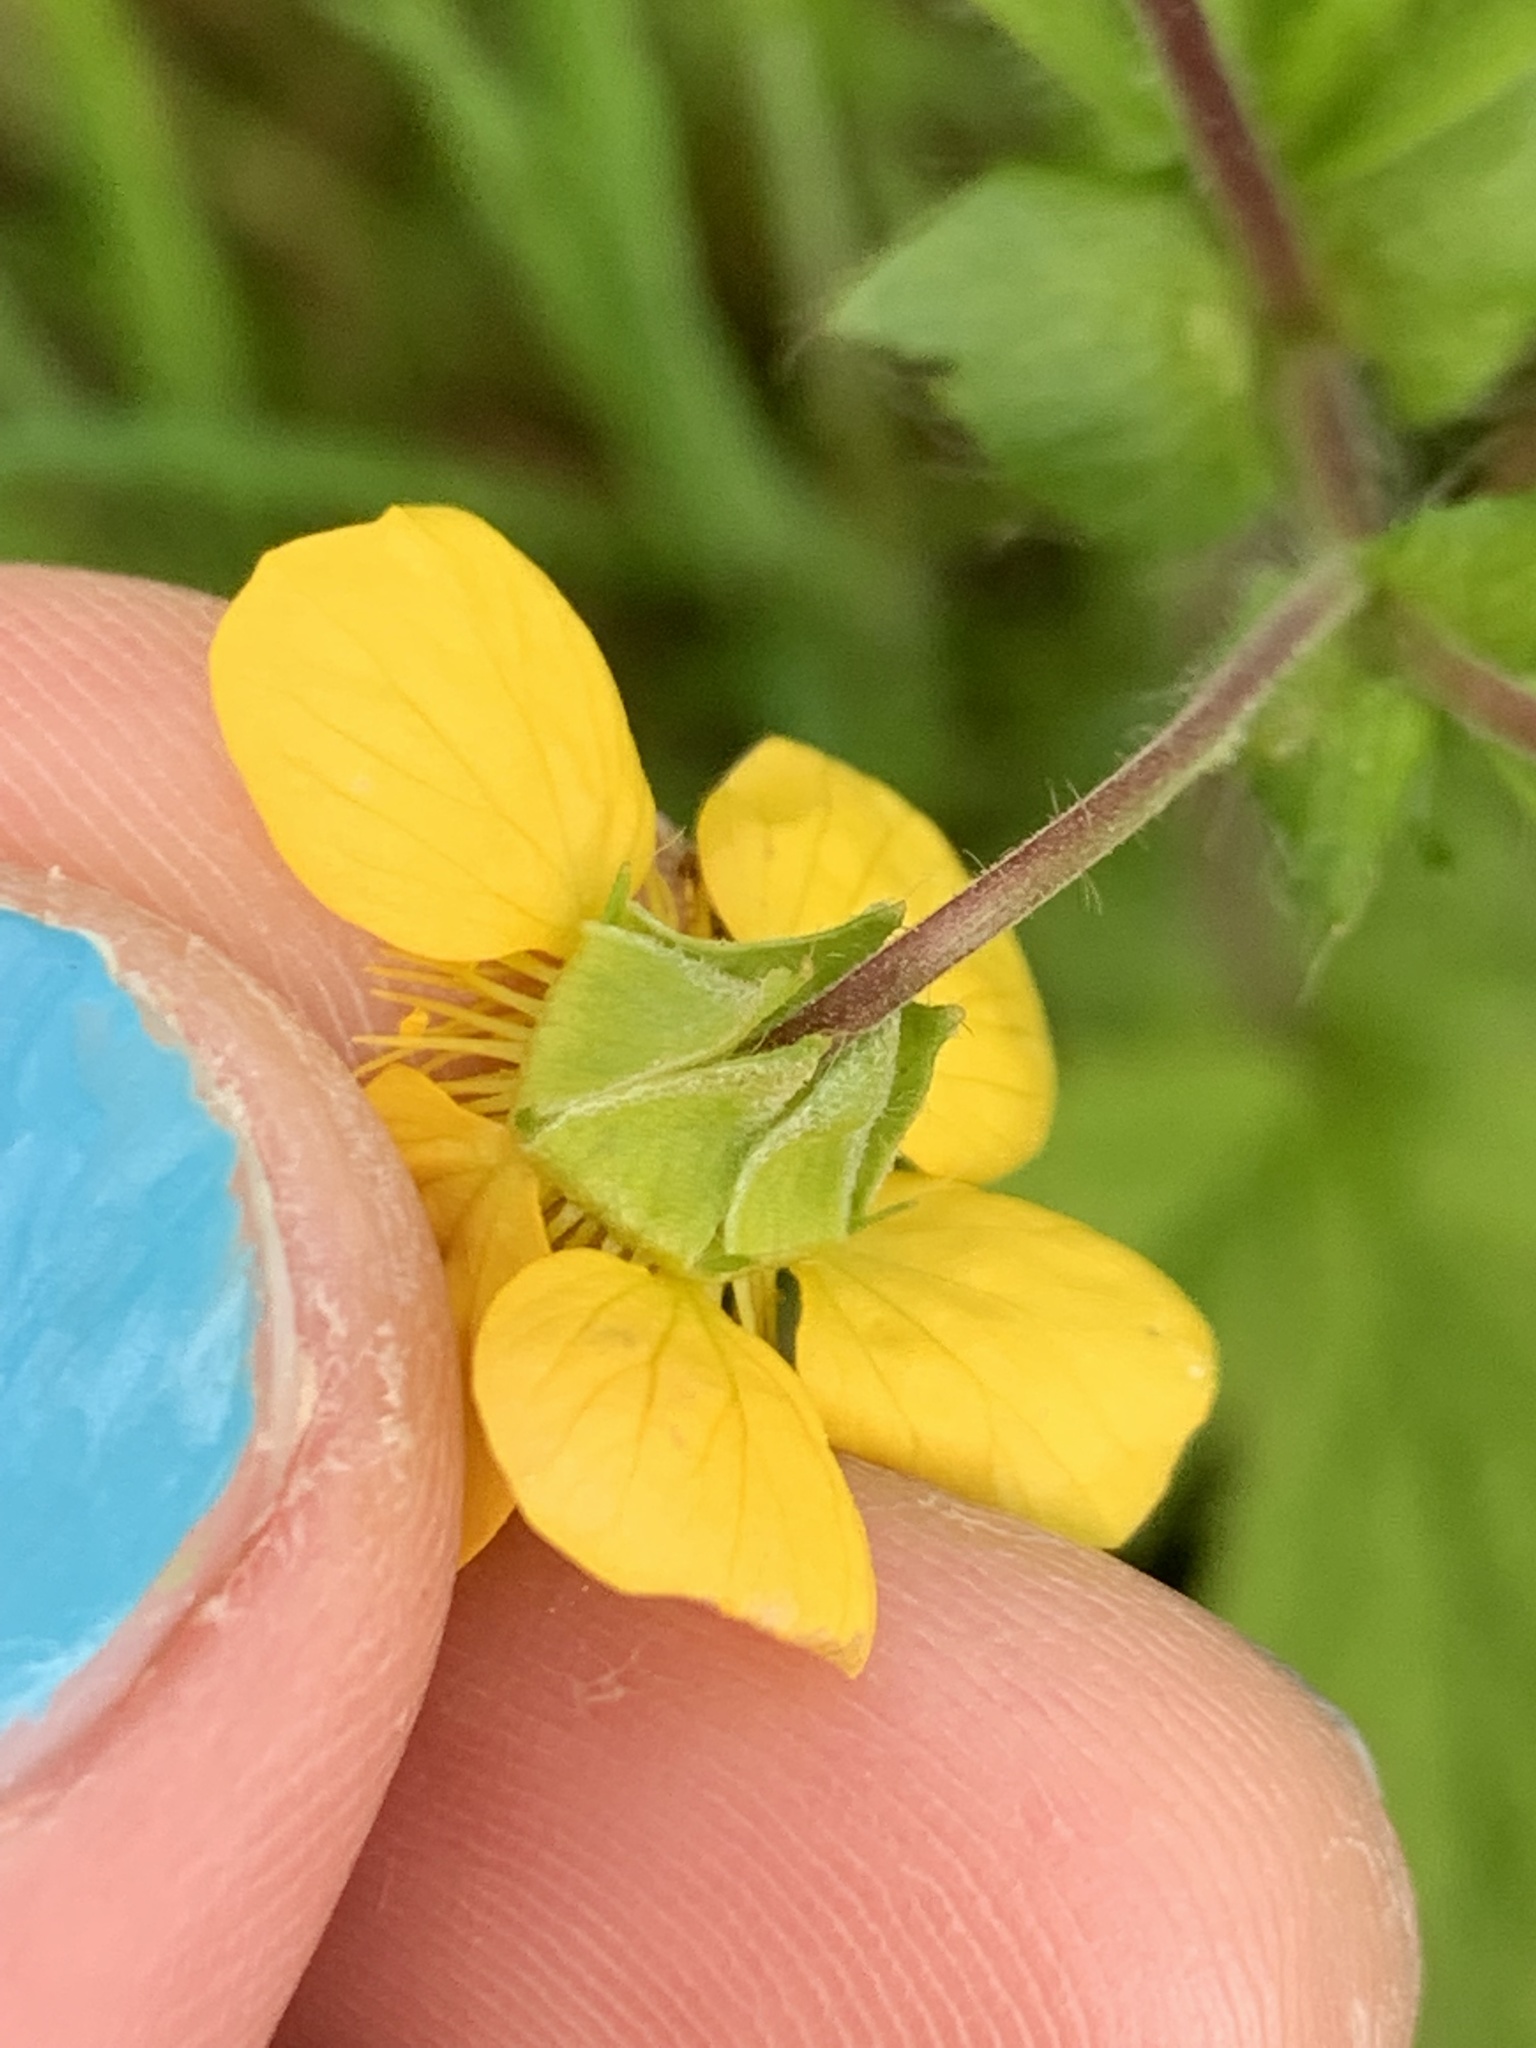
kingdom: Plantae
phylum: Tracheophyta
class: Magnoliopsida
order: Rosales
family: Rosaceae
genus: Geum
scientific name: Geum macrophyllum
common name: Large-leaved avens
